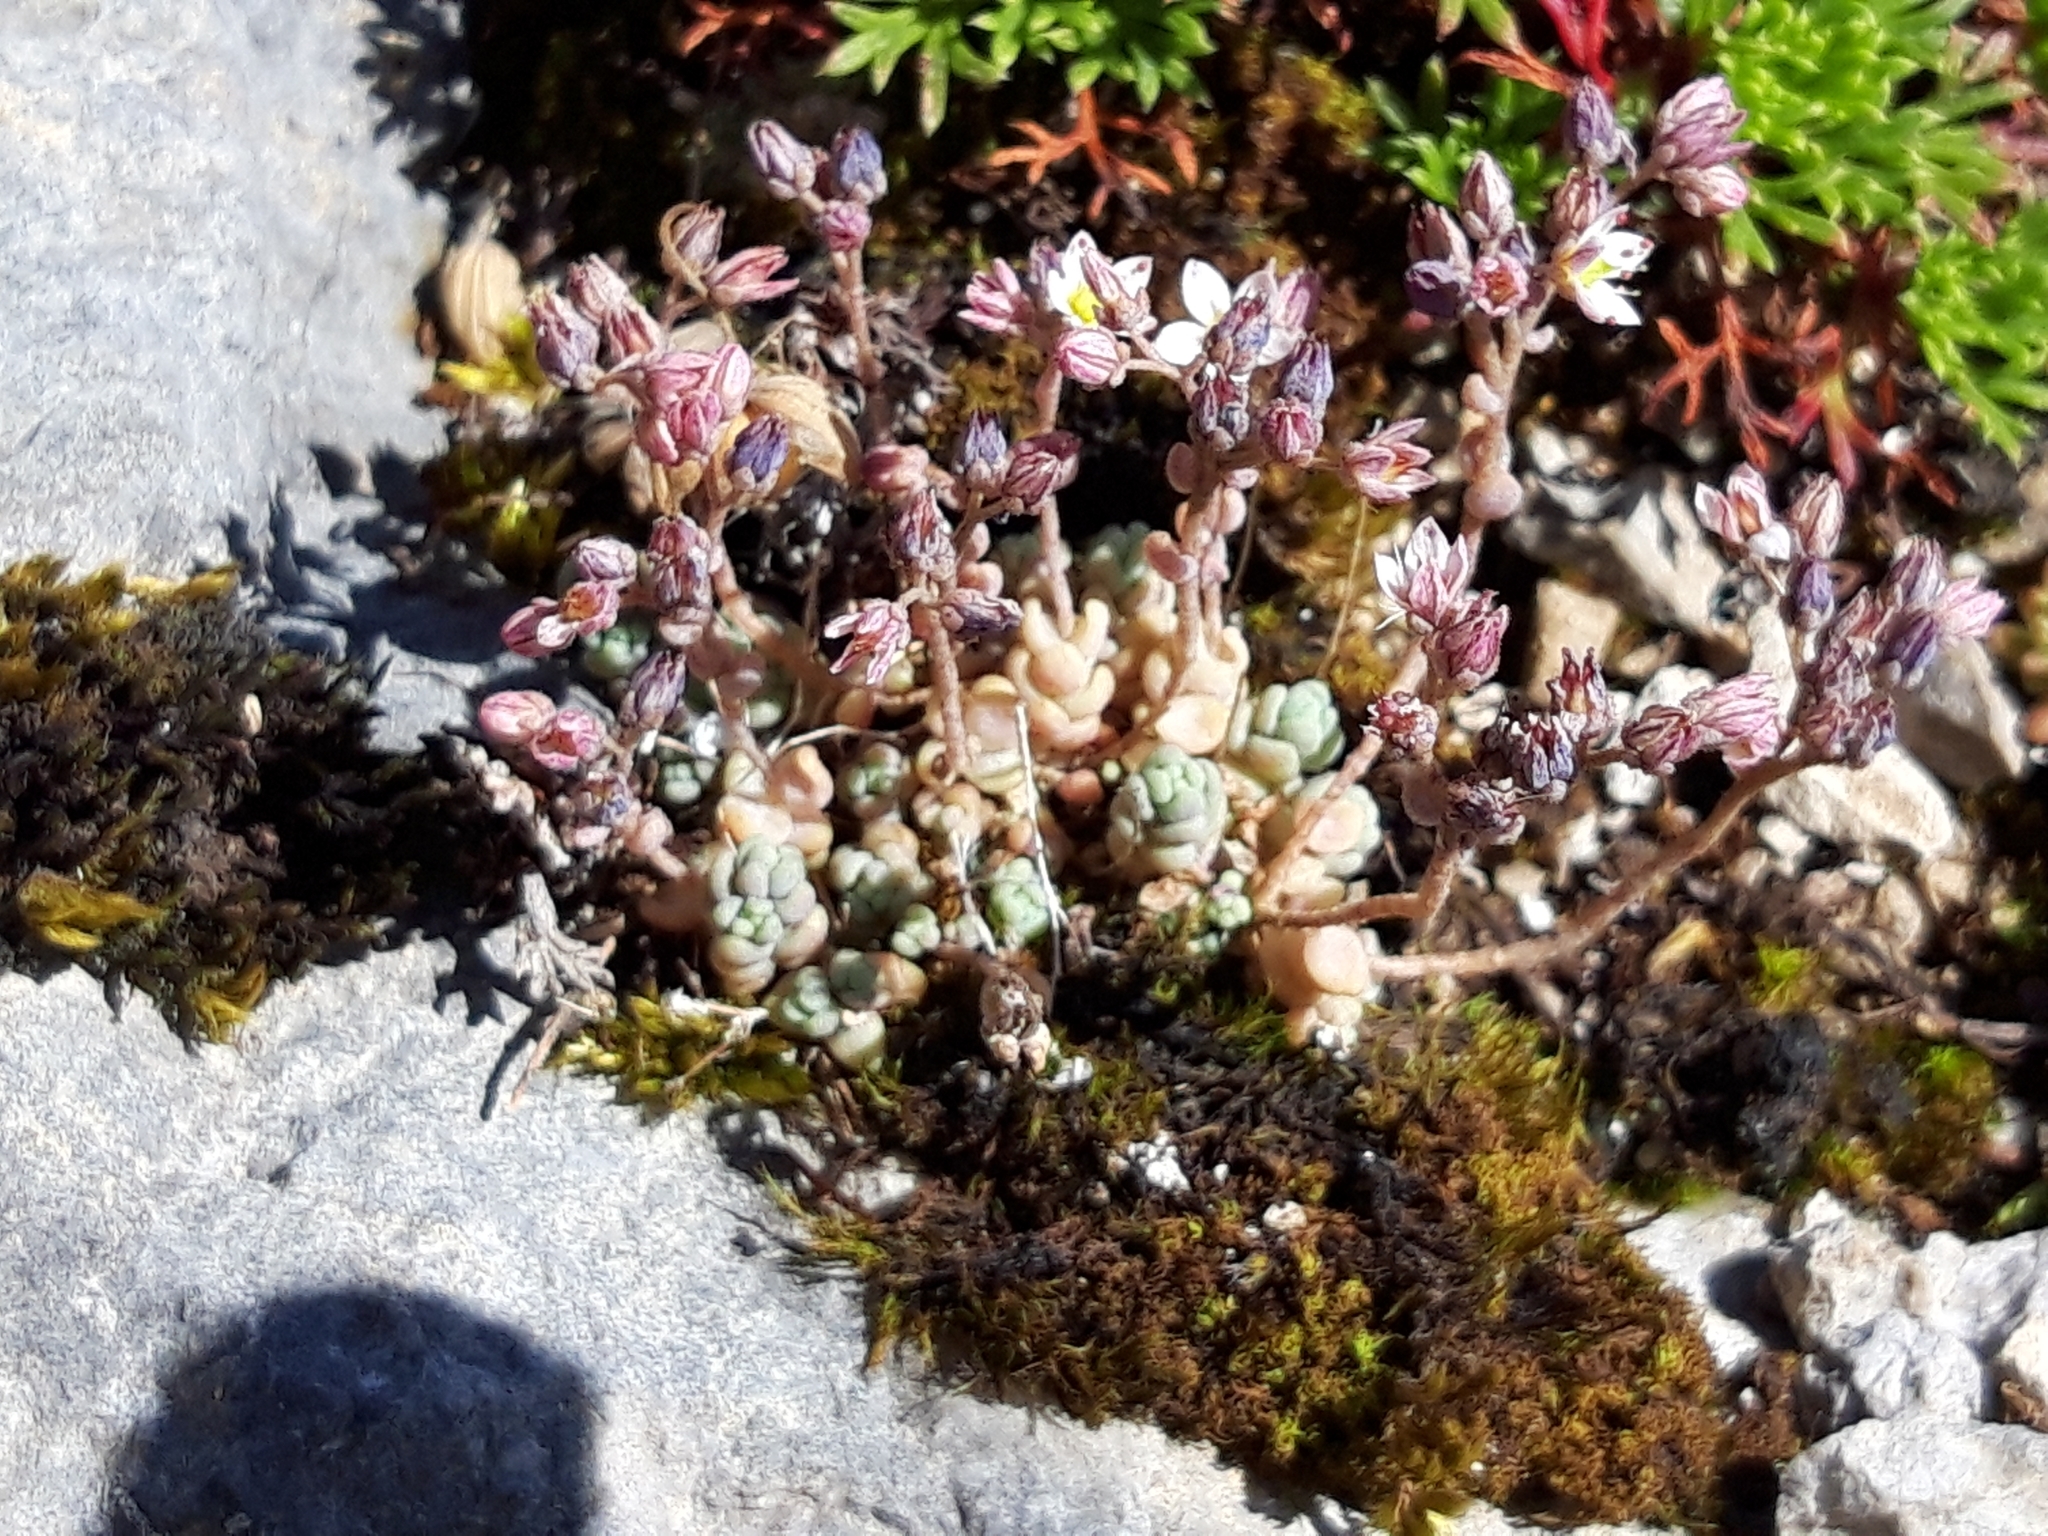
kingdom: Plantae
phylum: Tracheophyta
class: Magnoliopsida
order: Saxifragales
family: Crassulaceae
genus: Sedum
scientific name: Sedum dasyphyllum
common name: Thick-leaf stonecrop
